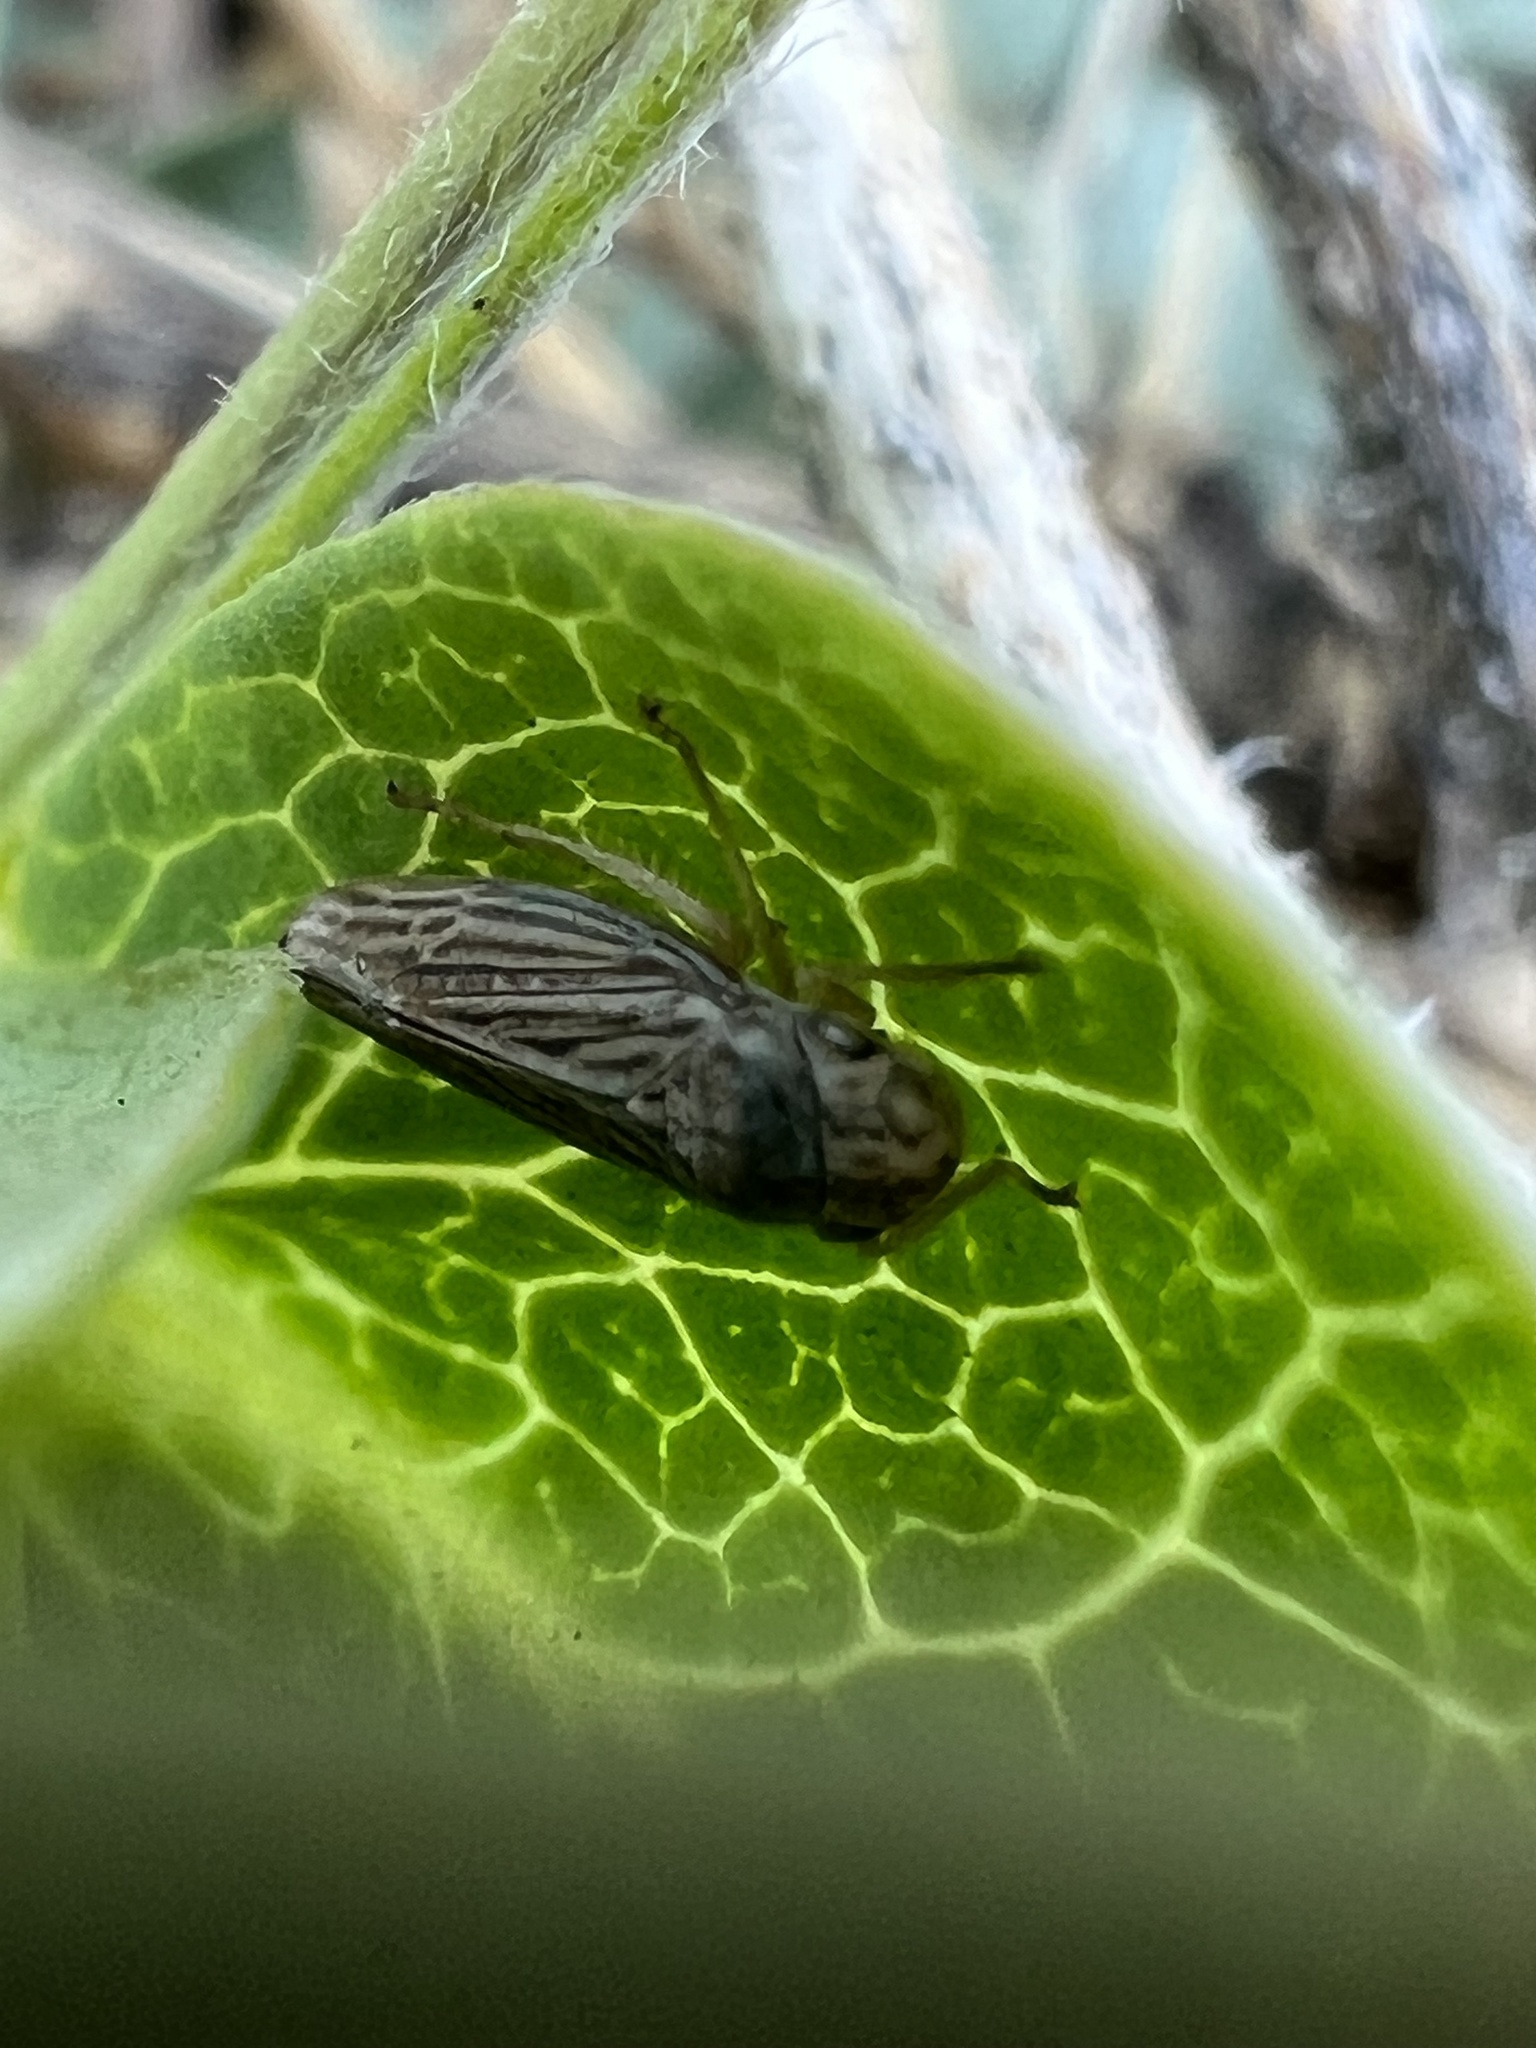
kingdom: Animalia
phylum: Arthropoda
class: Insecta
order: Hemiptera
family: Cicadellidae
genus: Neokolla
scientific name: Neokolla hieroglyphica
